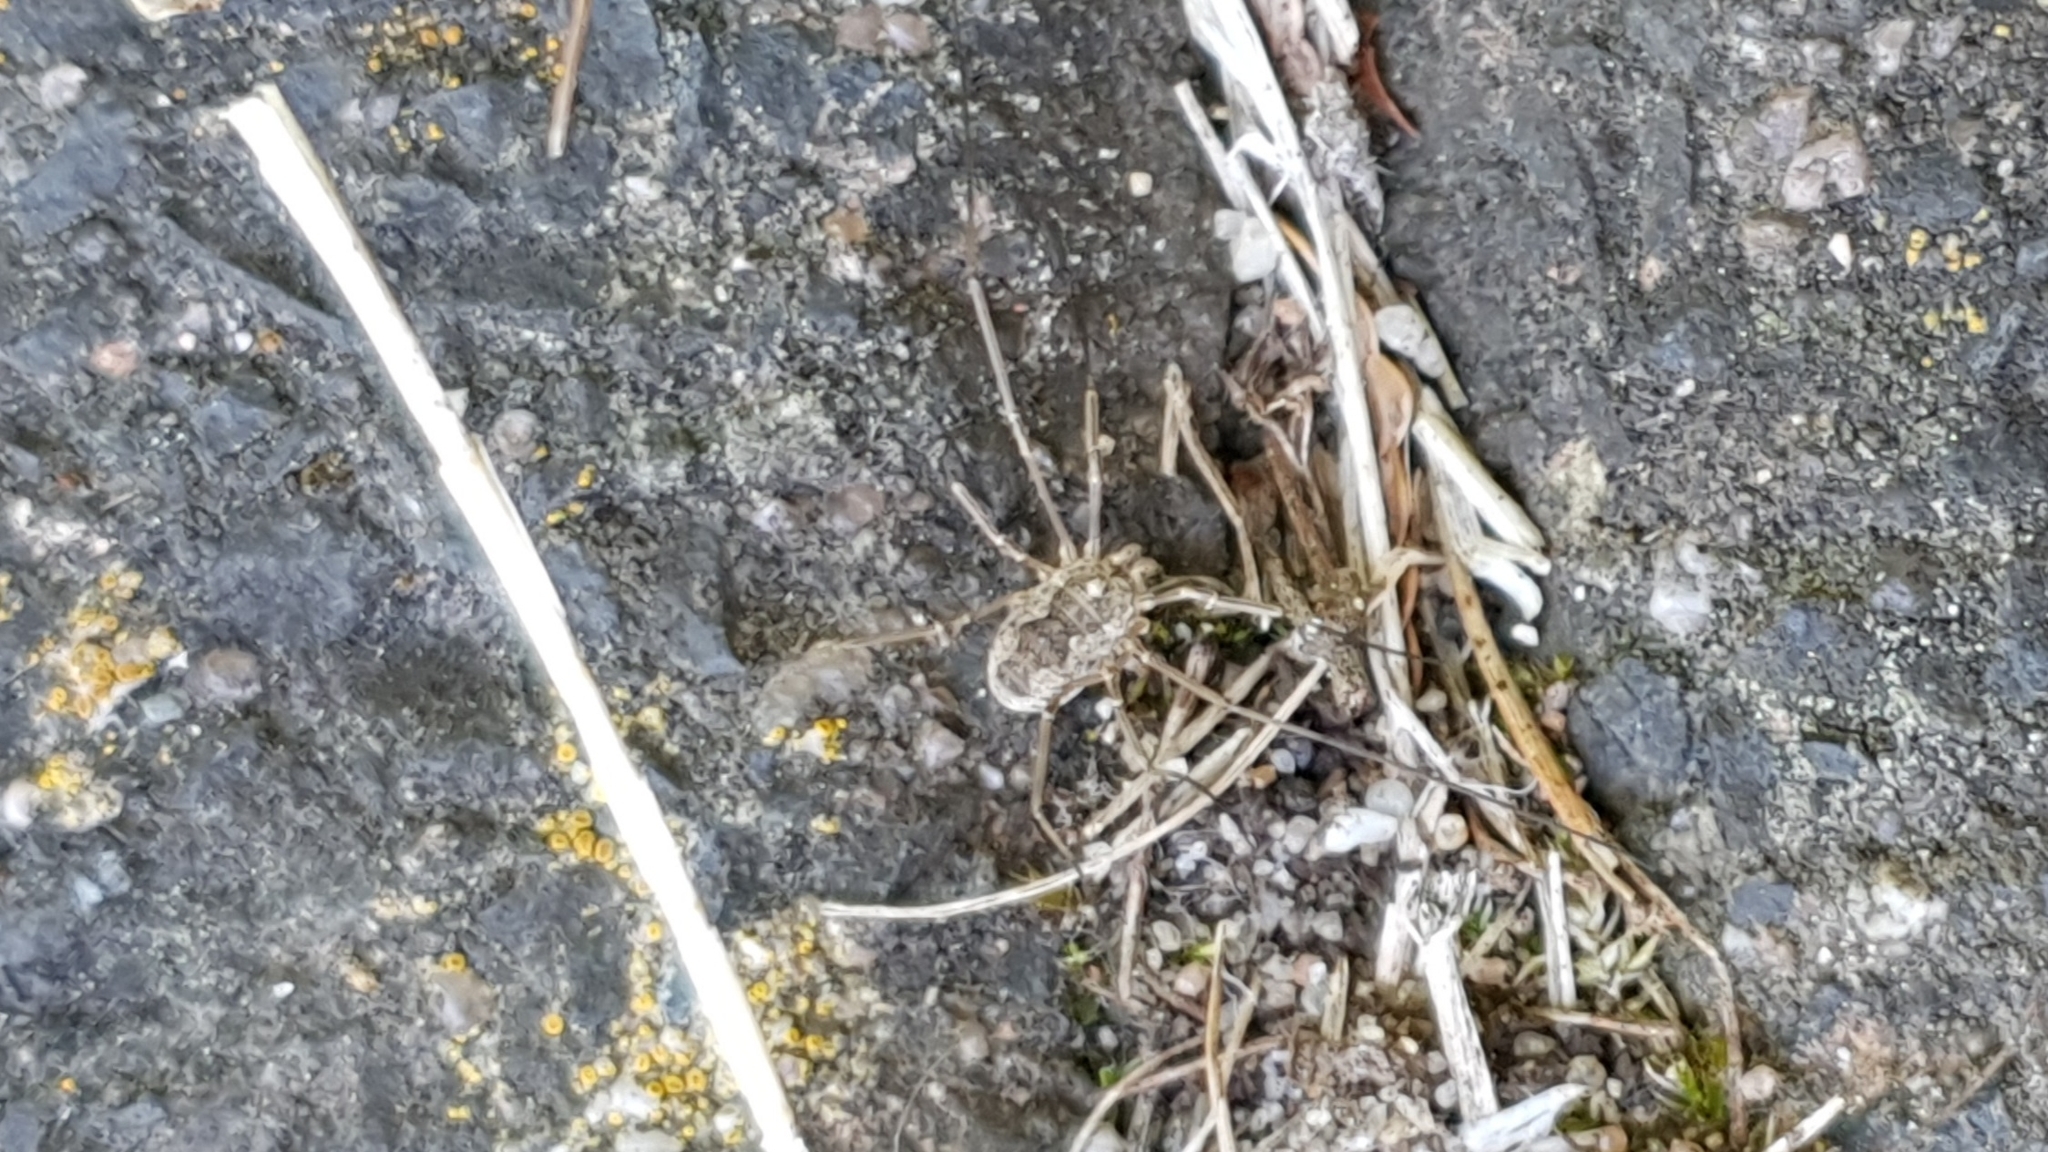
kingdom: Animalia
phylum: Arthropoda
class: Arachnida
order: Opiliones
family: Phalangiidae
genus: Phalangium
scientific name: Phalangium opilio
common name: Daddy longleg
